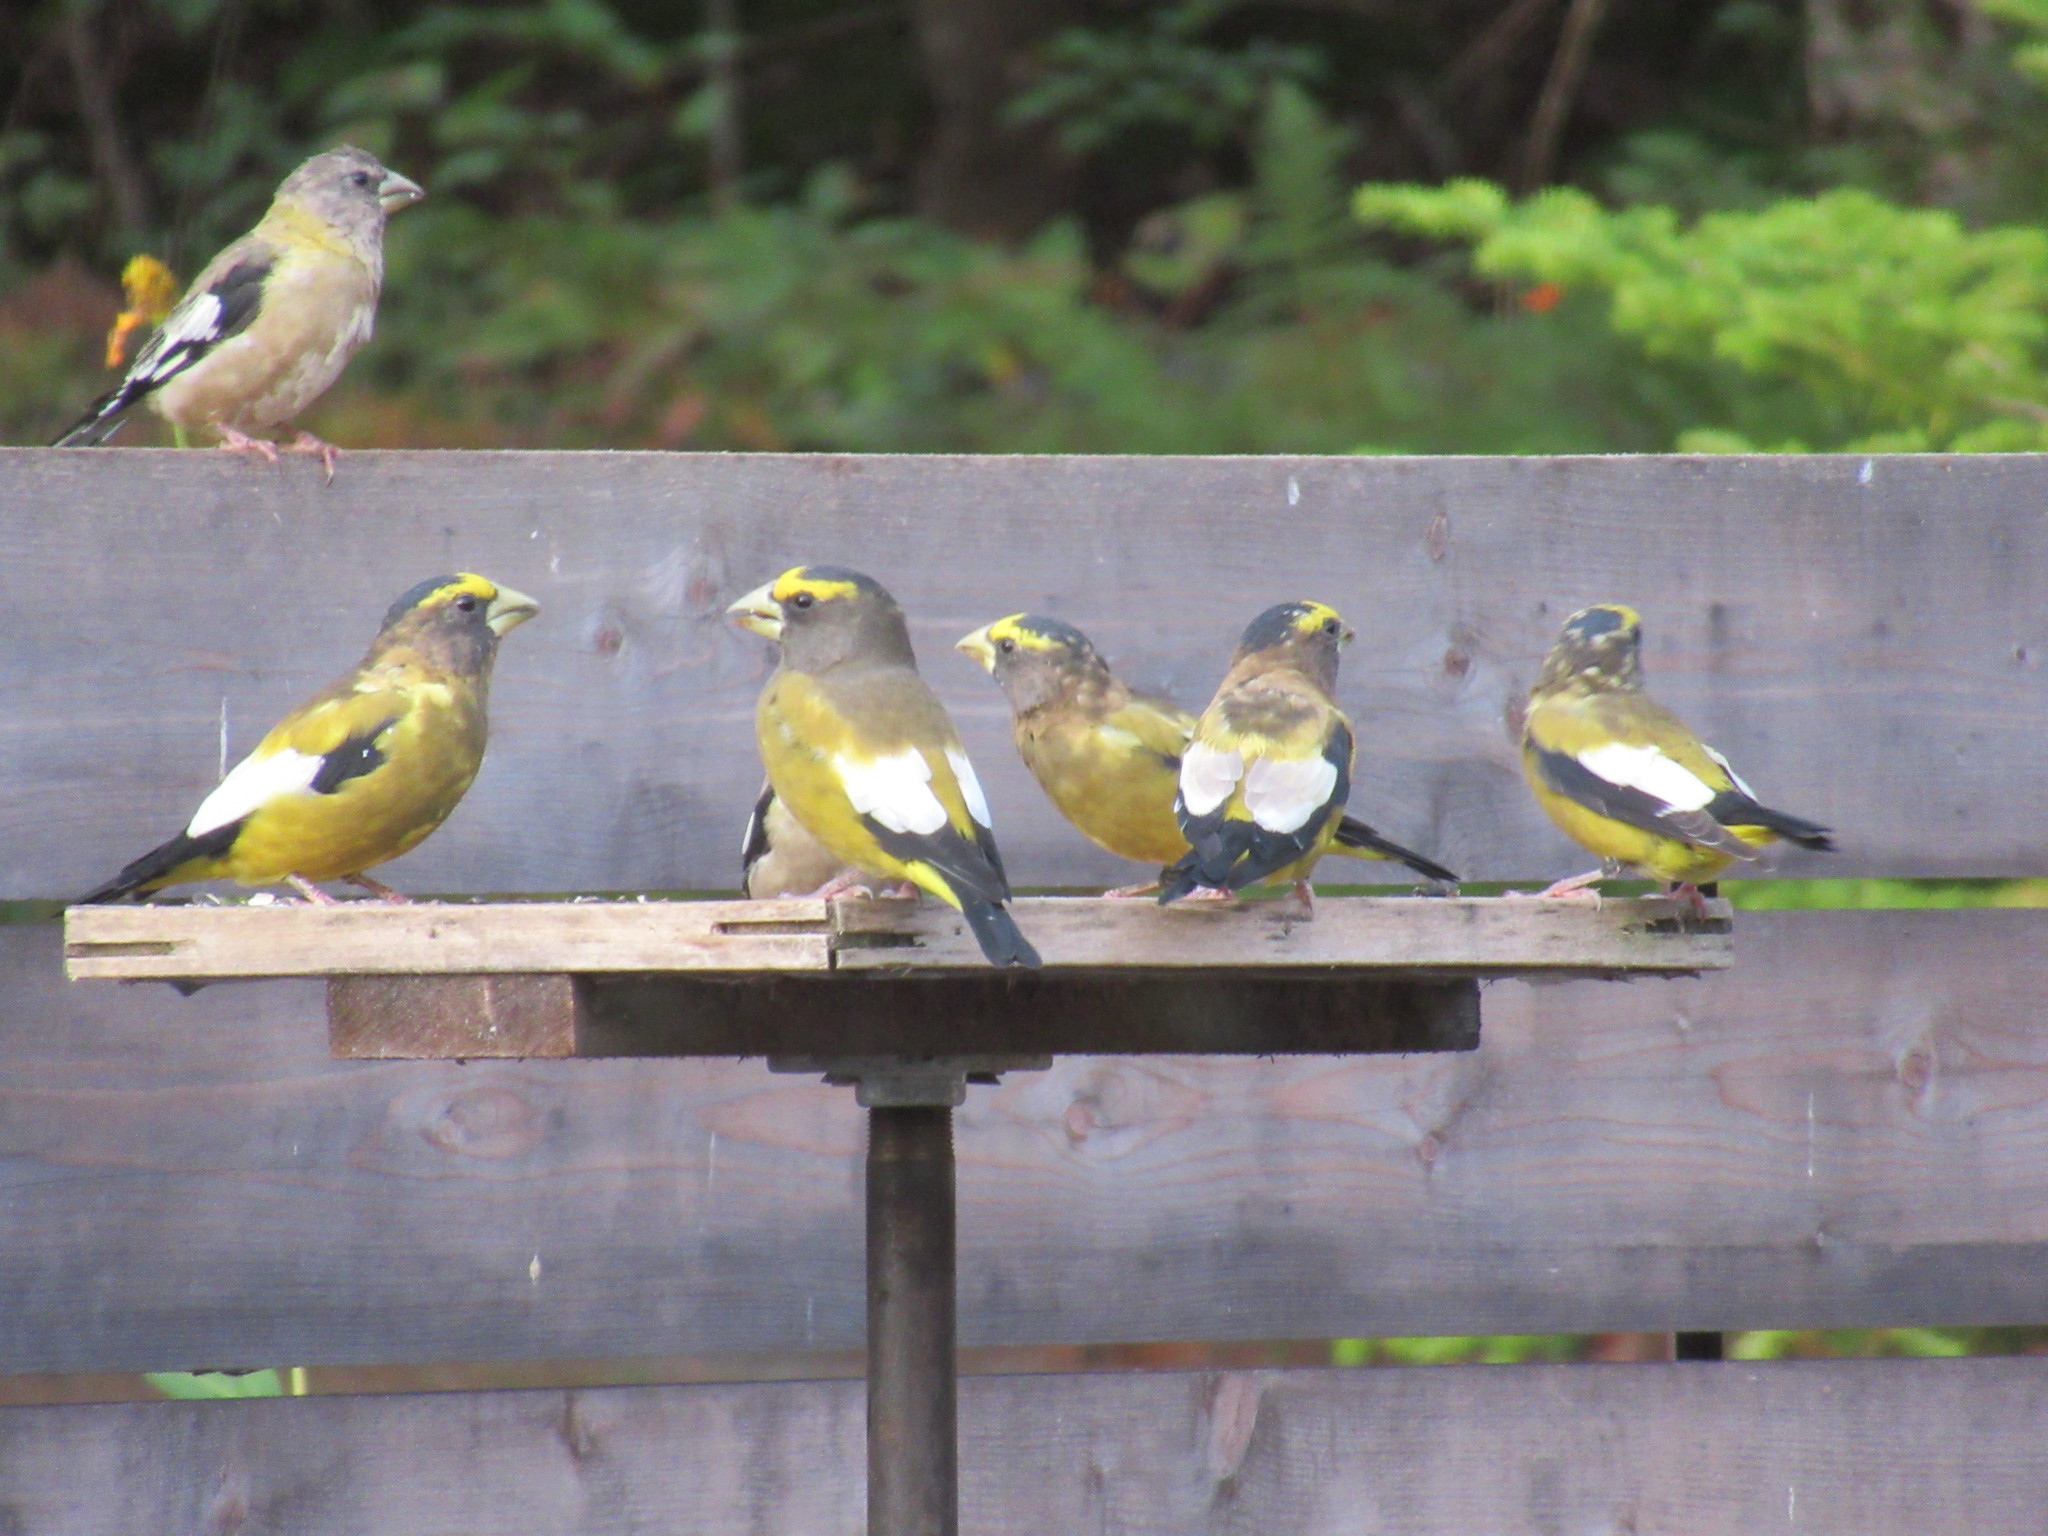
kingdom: Animalia
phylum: Chordata
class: Aves
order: Passeriformes
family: Fringillidae
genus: Hesperiphona
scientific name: Hesperiphona vespertina
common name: Evening grosbeak
